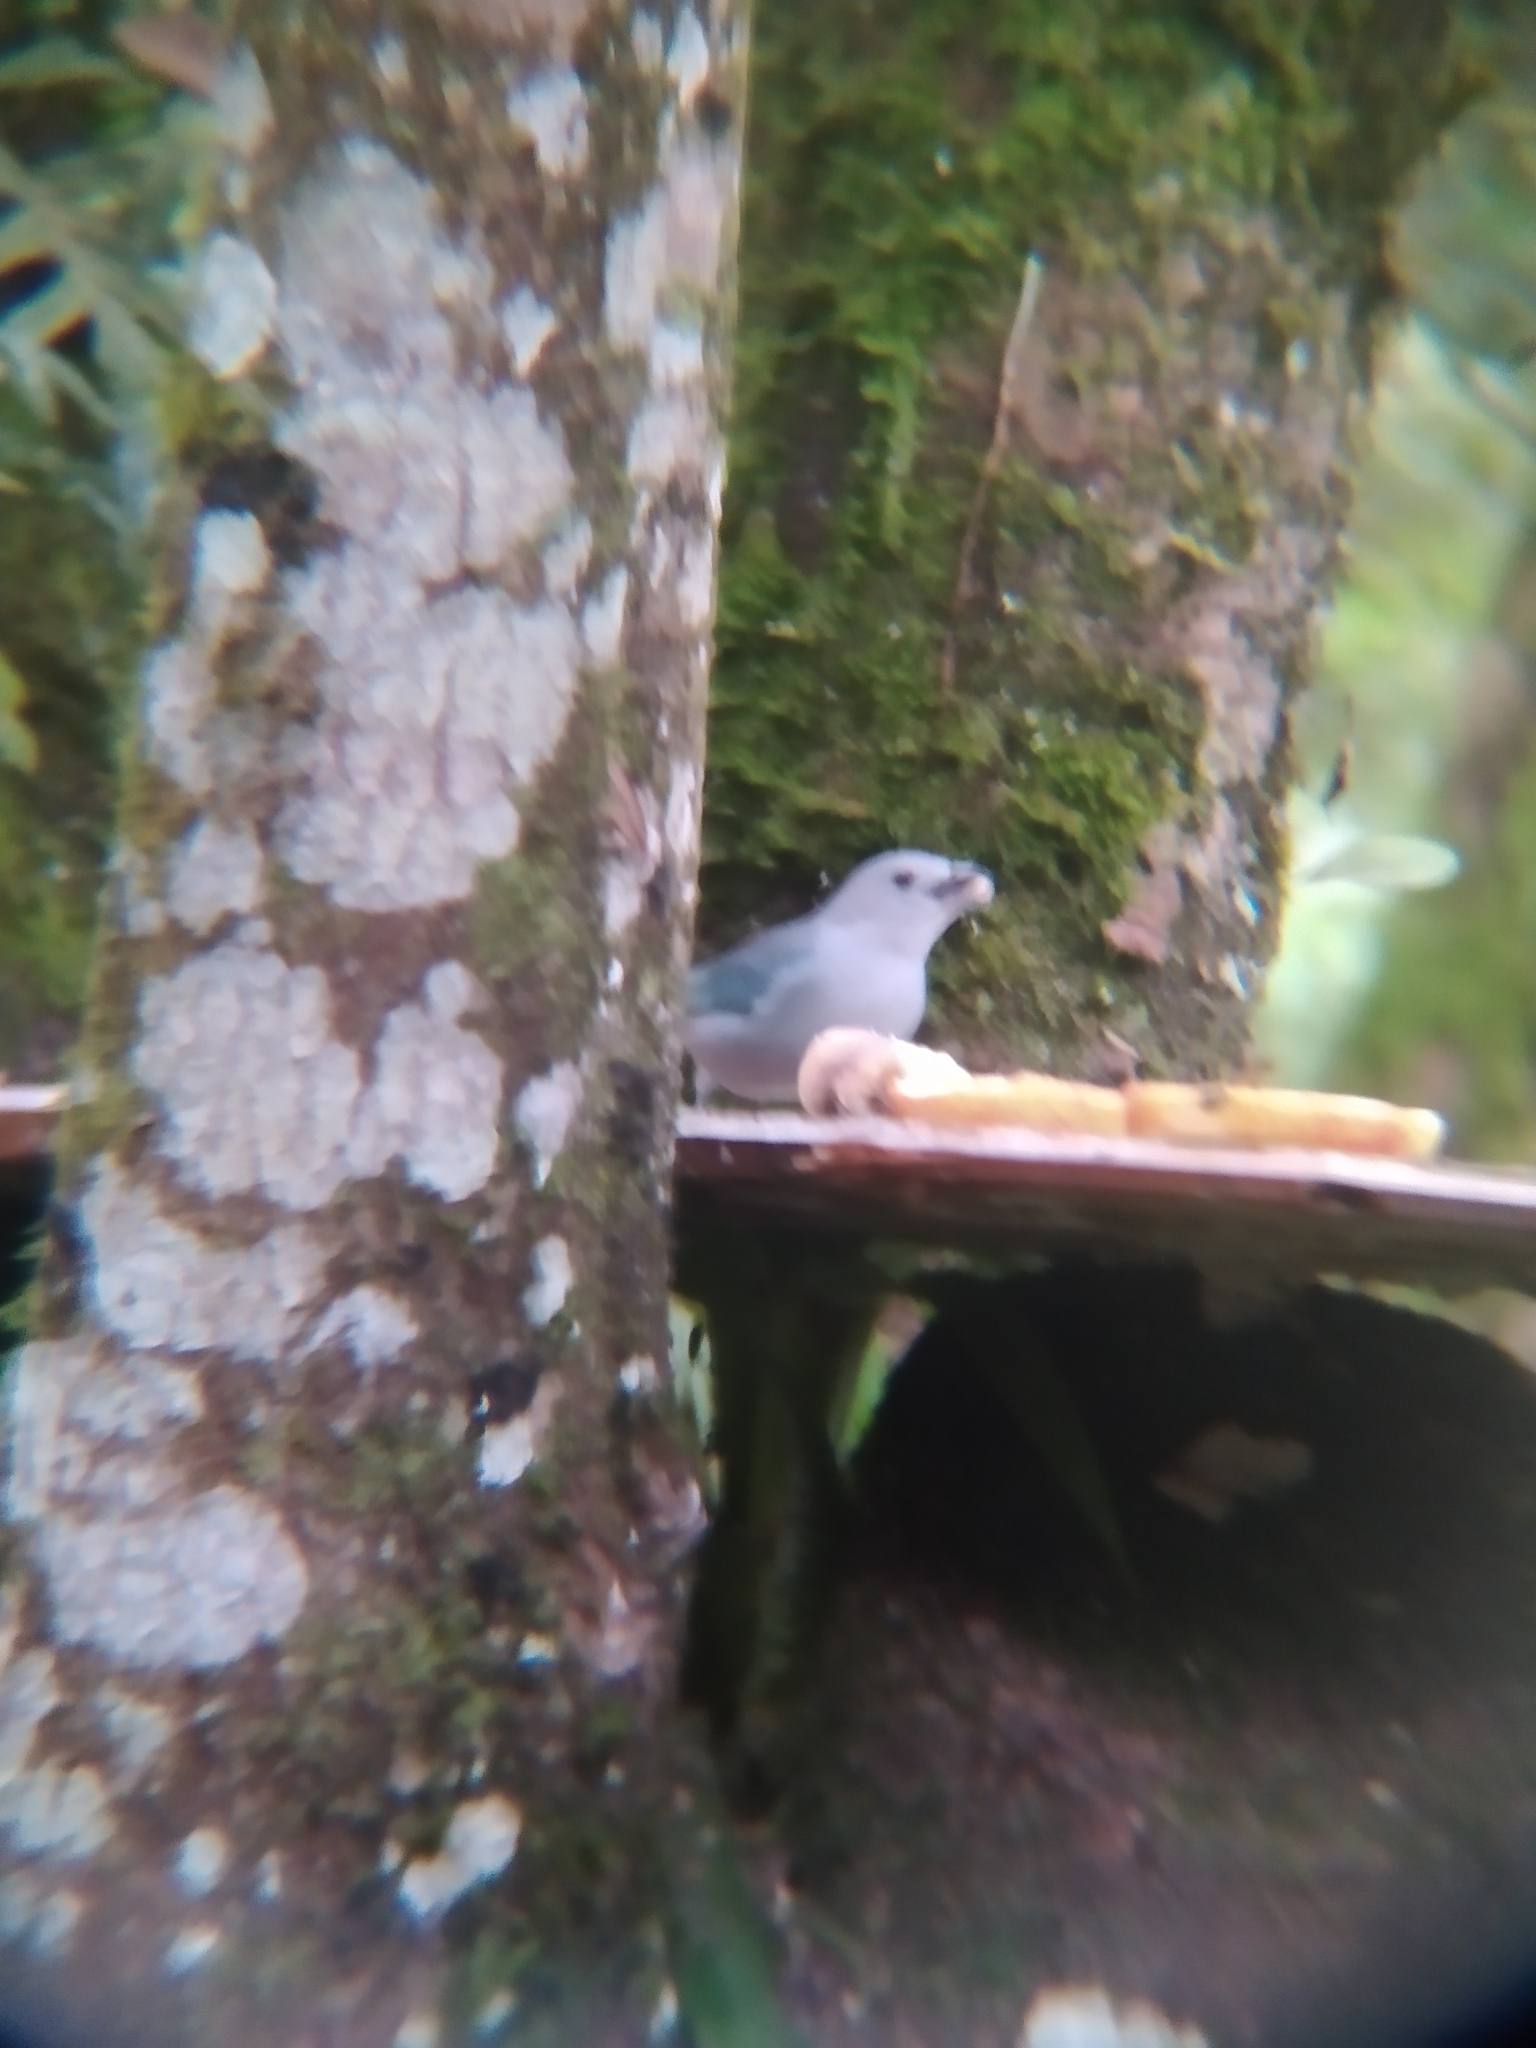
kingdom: Animalia
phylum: Chordata
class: Aves
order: Passeriformes
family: Thraupidae
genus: Thraupis
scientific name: Thraupis sayaca
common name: Sayaca tanager
